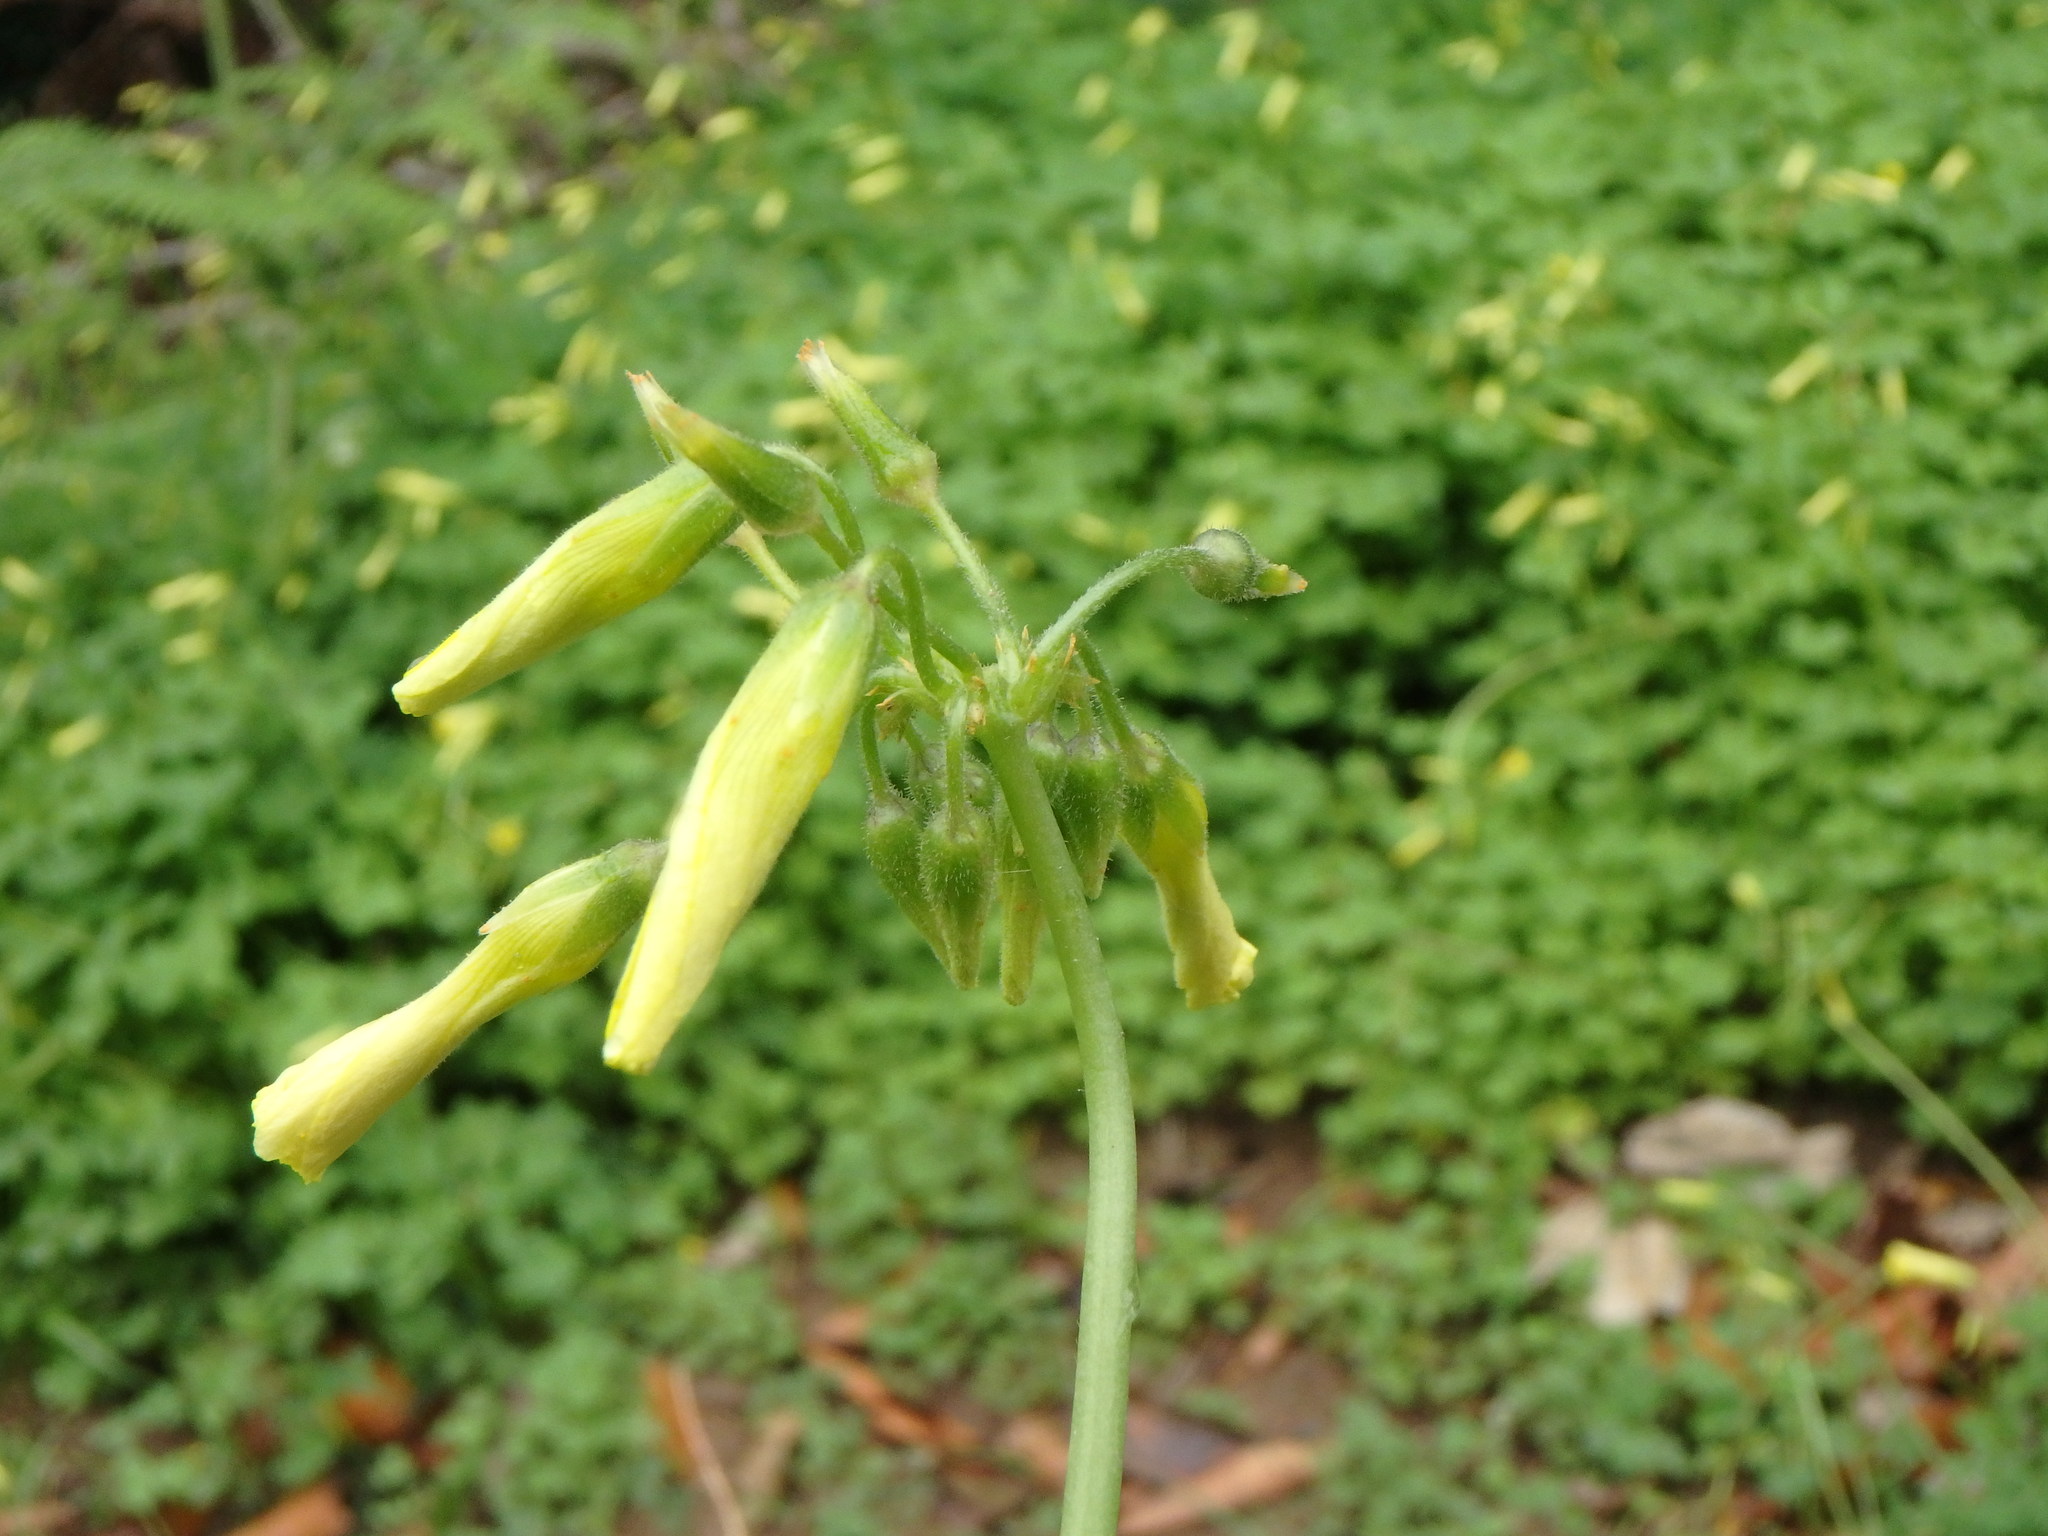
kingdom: Plantae
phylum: Tracheophyta
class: Magnoliopsida
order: Oxalidales
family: Oxalidaceae
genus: Oxalis
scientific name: Oxalis pes-caprae
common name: Bermuda-buttercup
